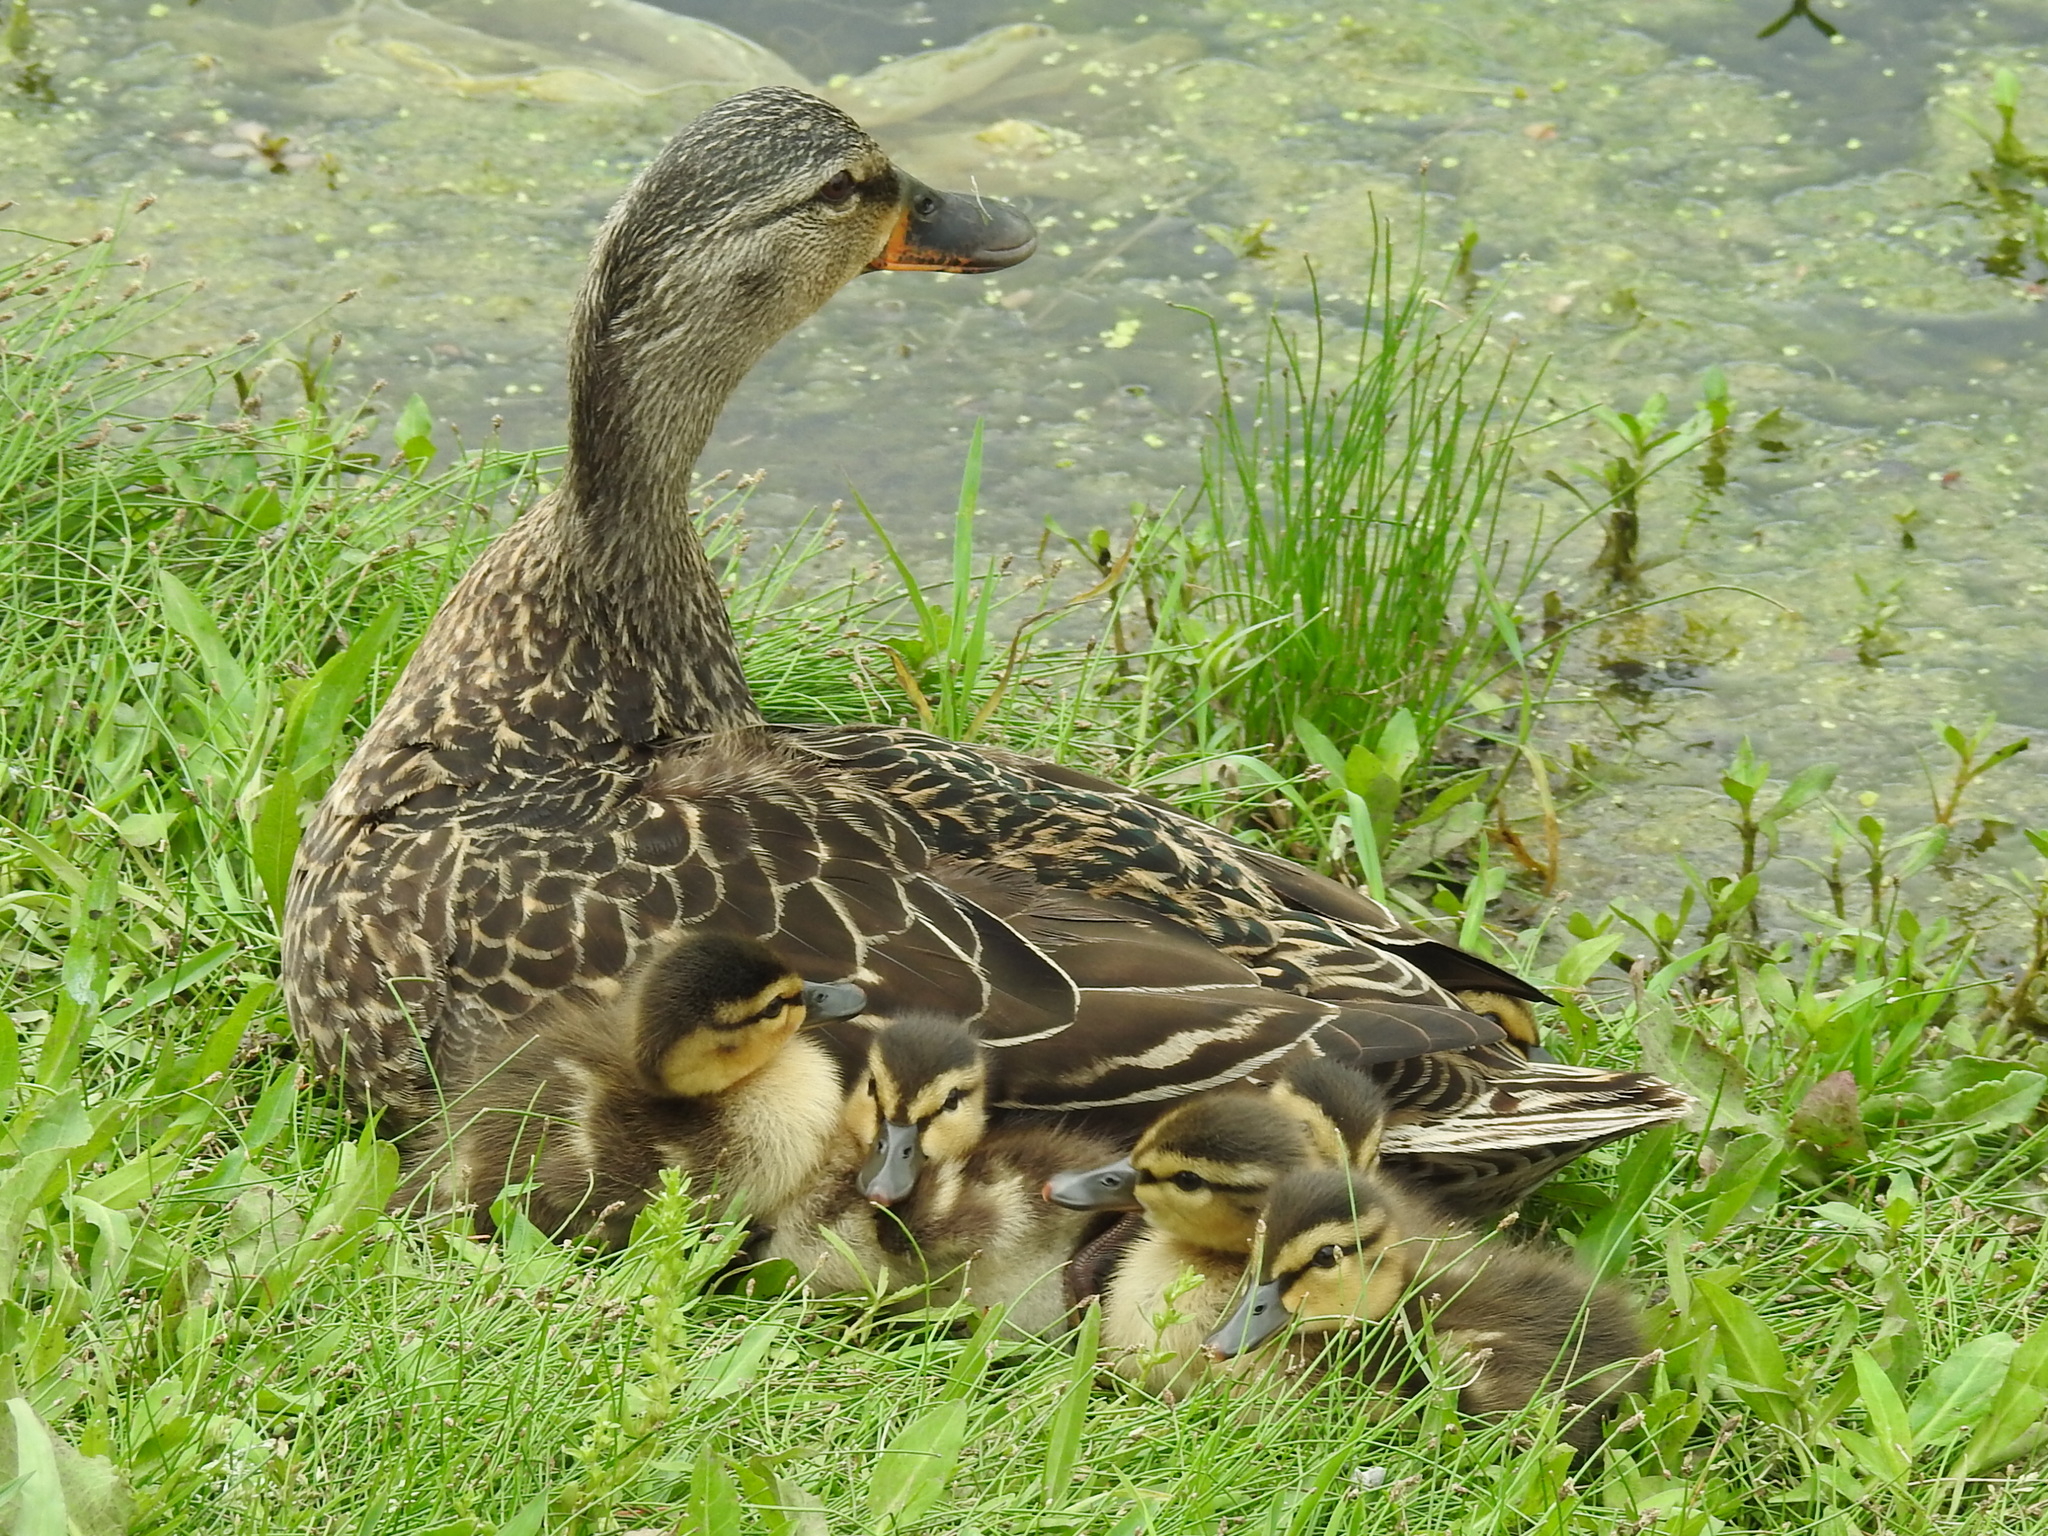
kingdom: Animalia
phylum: Chordata
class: Aves
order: Anseriformes
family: Anatidae
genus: Anas
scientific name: Anas platyrhynchos
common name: Mallard
